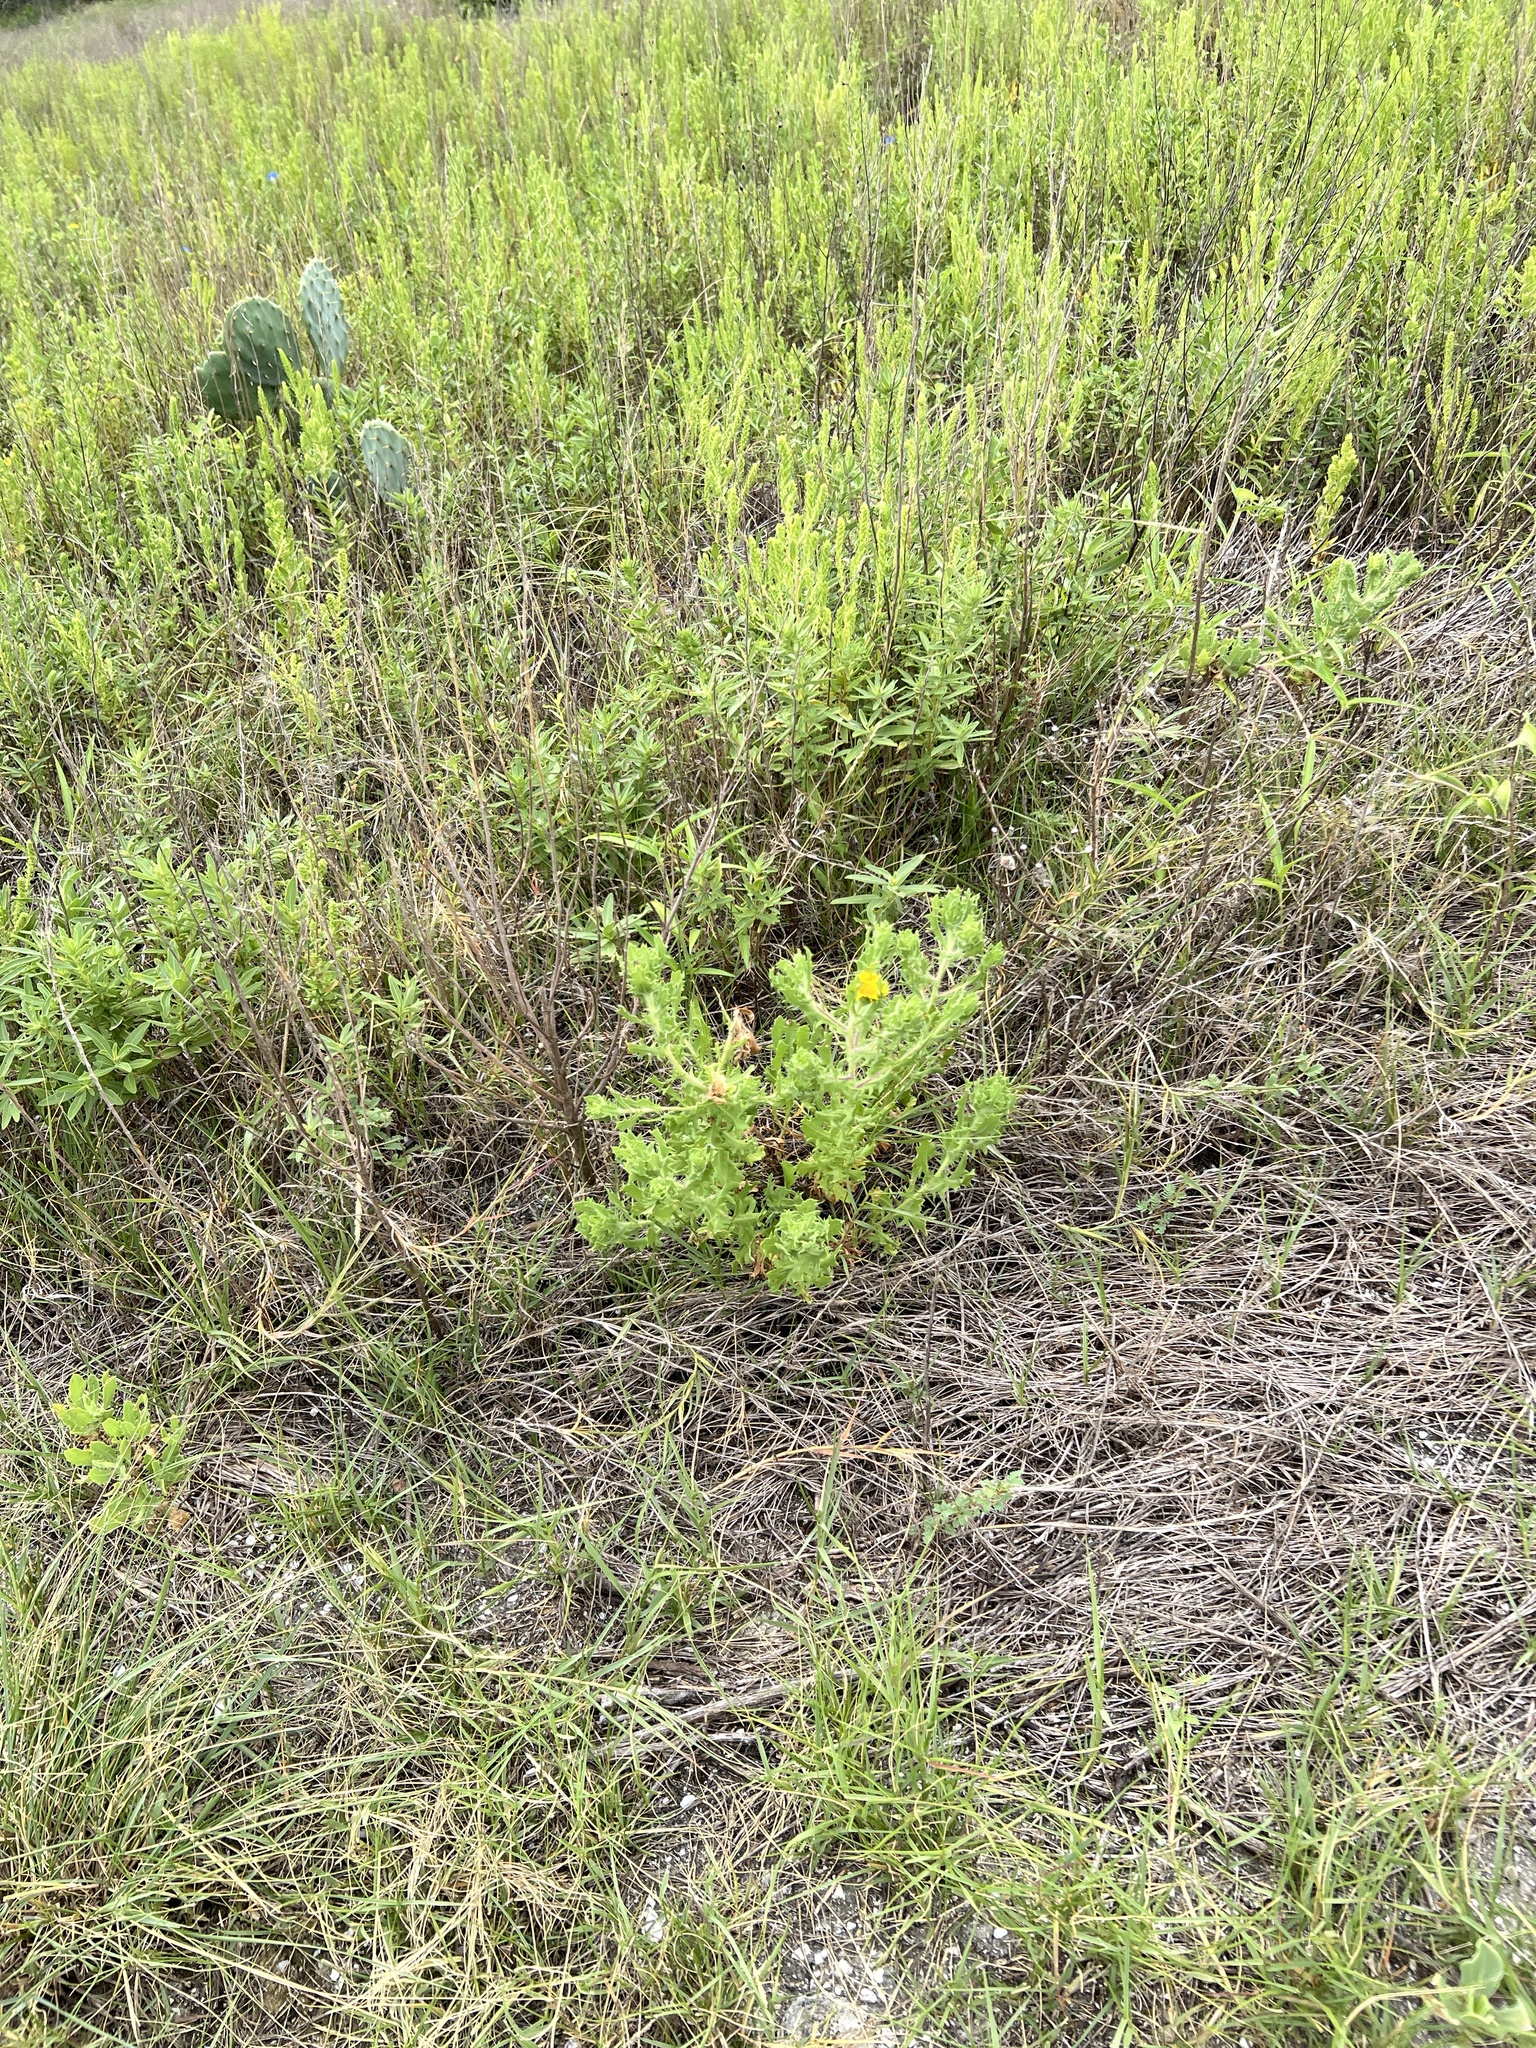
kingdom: Plantae
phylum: Tracheophyta
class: Magnoliopsida
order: Asterales
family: Asteraceae
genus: Rayjacksonia
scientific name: Rayjacksonia phyllocephala
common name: Gulf coast camphor daisy
